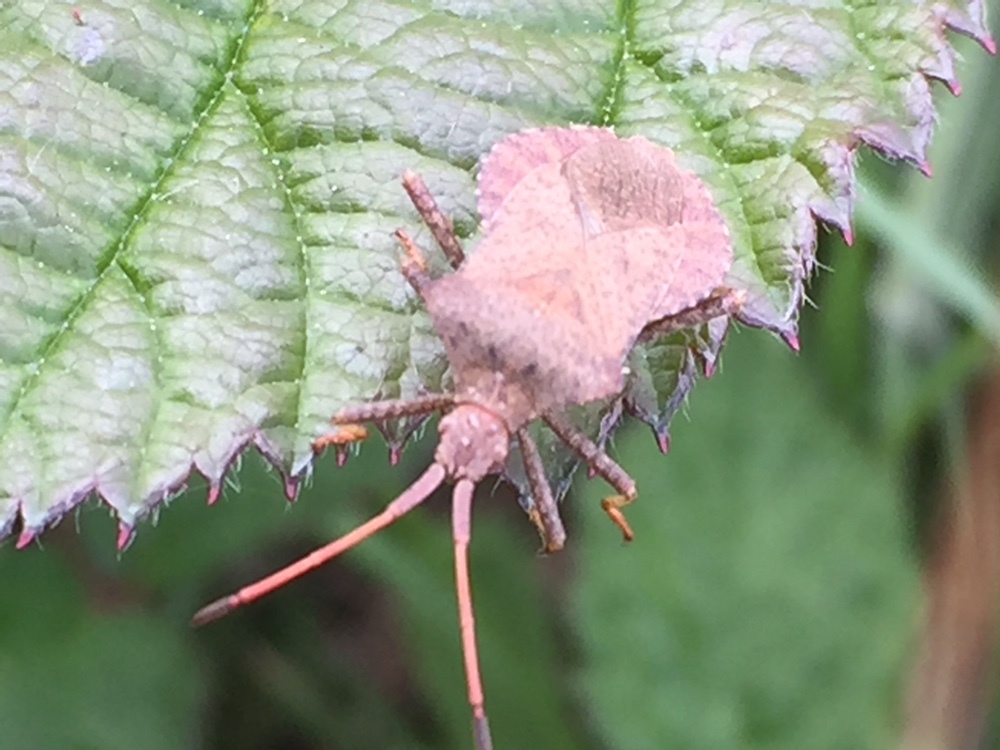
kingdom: Animalia
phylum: Arthropoda
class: Insecta
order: Hemiptera
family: Coreidae
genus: Coreus
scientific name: Coreus marginatus
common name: Dock bug
